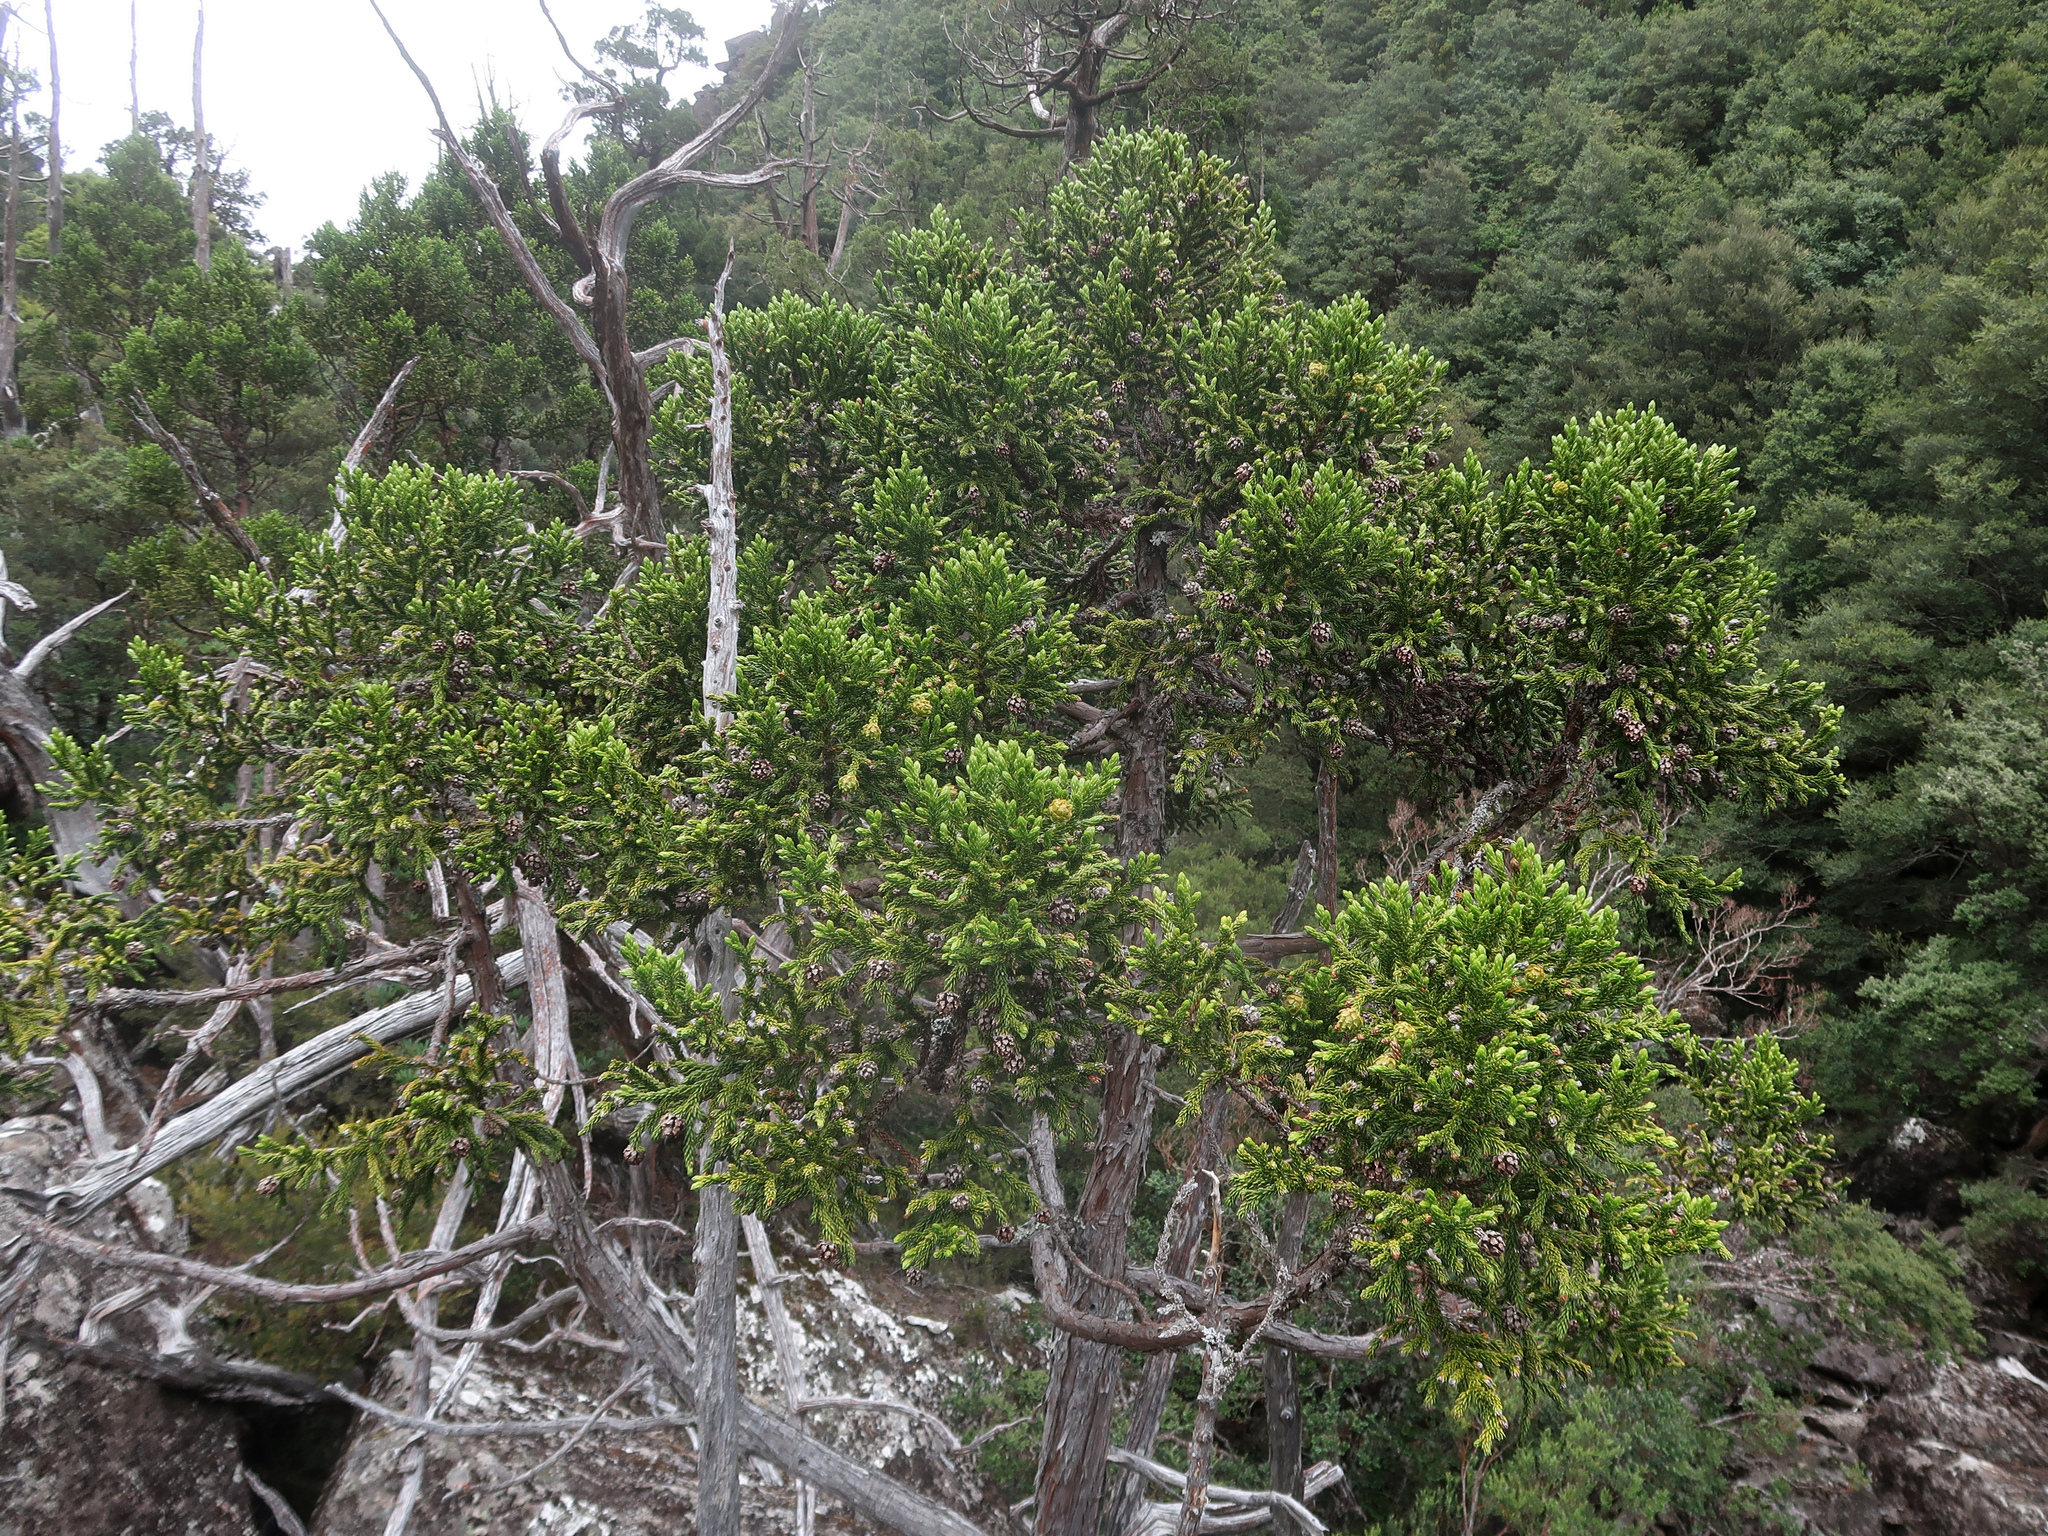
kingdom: Plantae
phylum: Tracheophyta
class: Pinopsida
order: Pinales
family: Cupressaceae
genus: Athrotaxis
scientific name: Athrotaxis selaginoides
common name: King william pine
